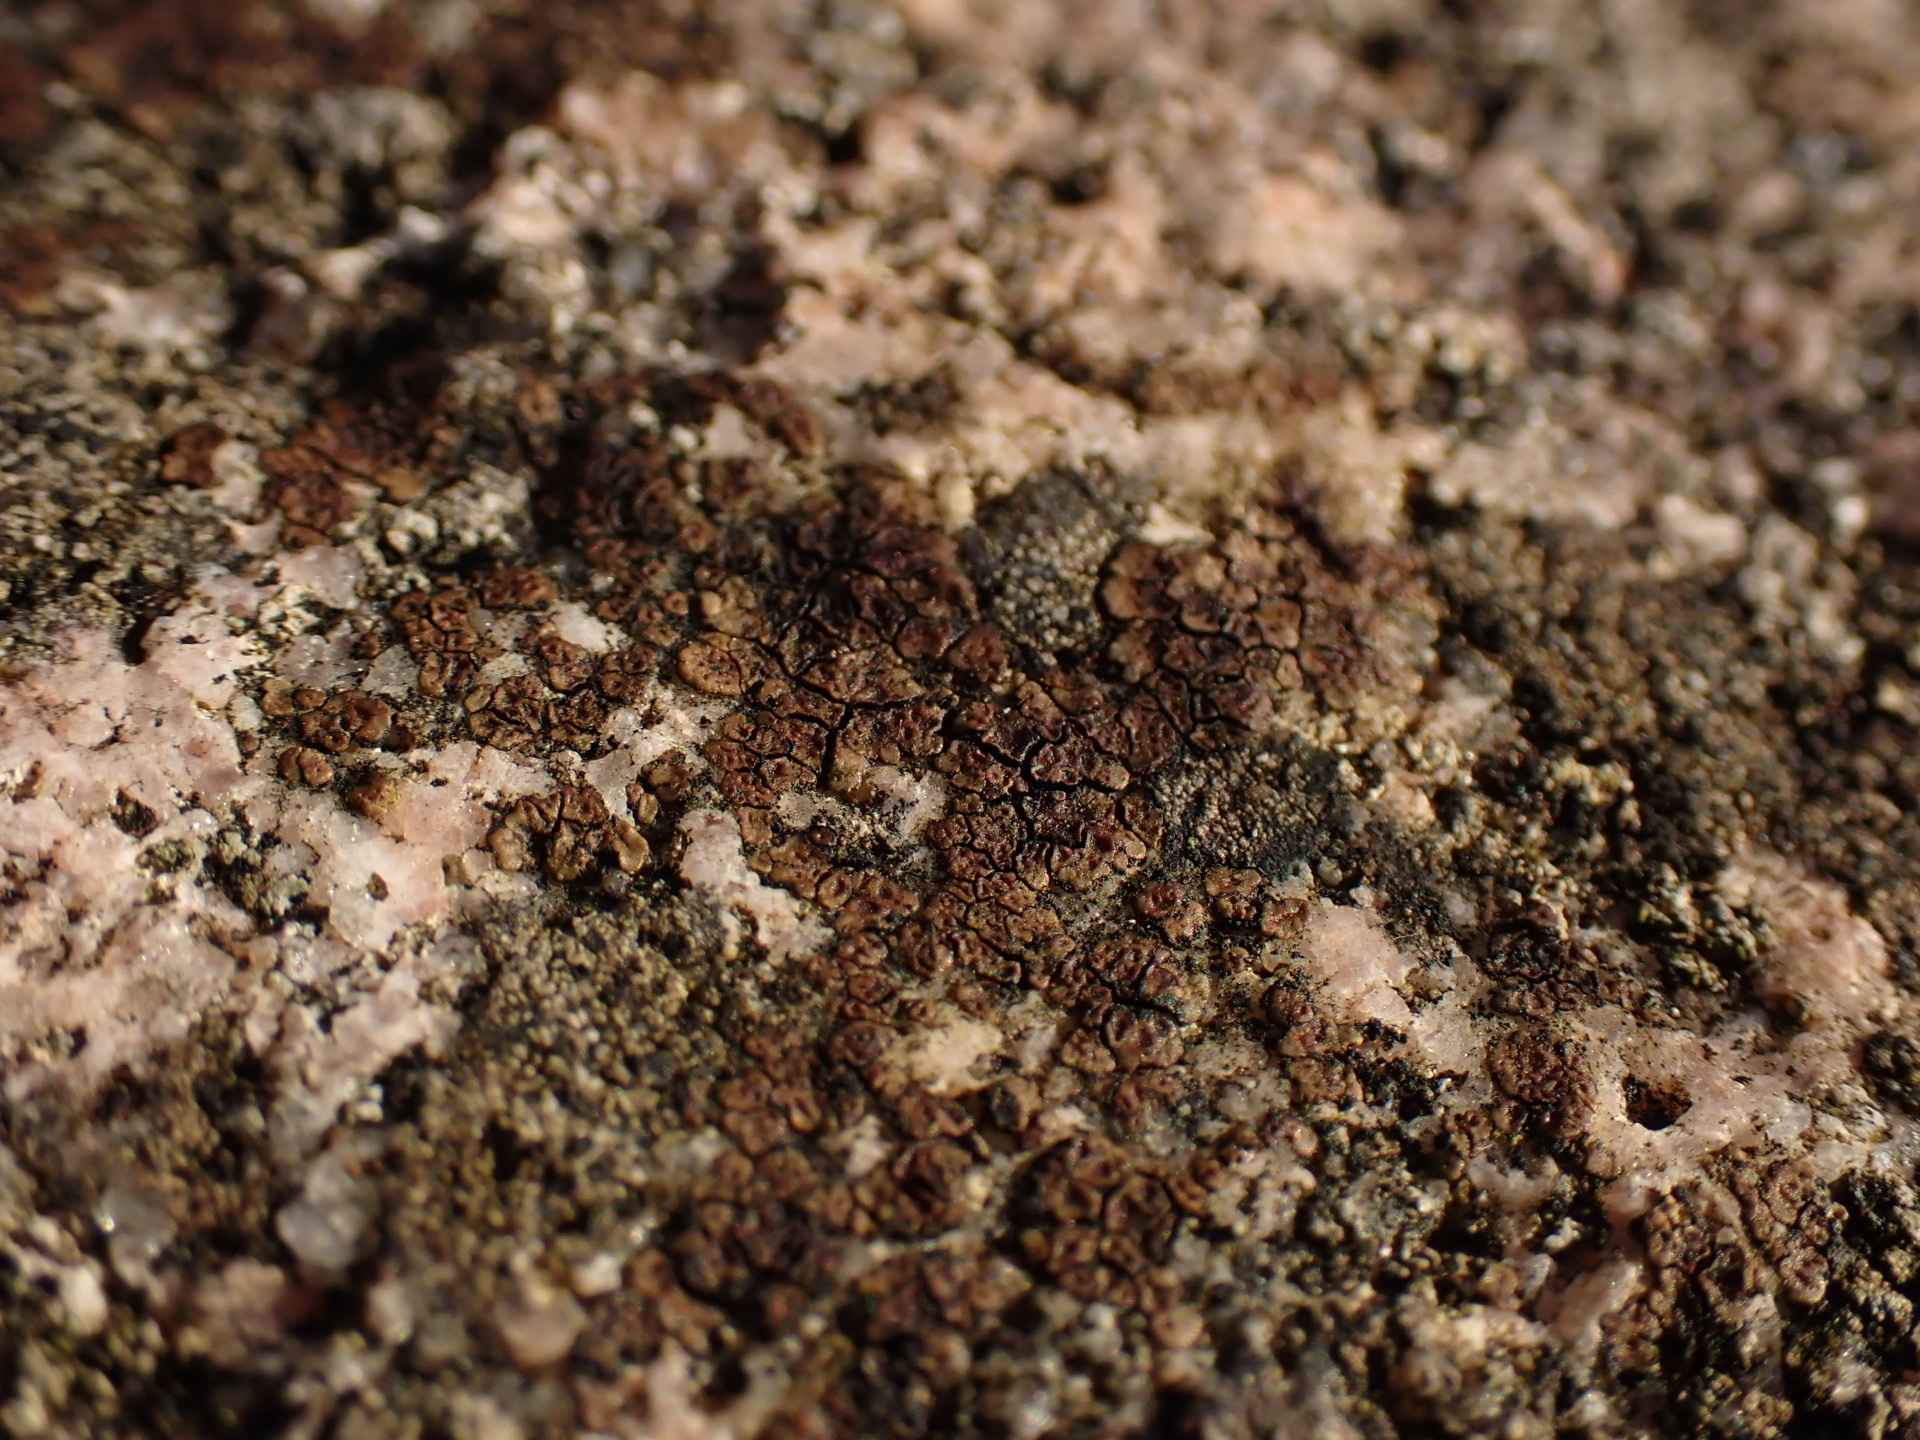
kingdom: Fungi
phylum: Ascomycota
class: Lecanoromycetes
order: Acarosporales
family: Acarosporaceae
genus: Acarospora
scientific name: Acarospora fuscata
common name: Brown cobblestone lichen
